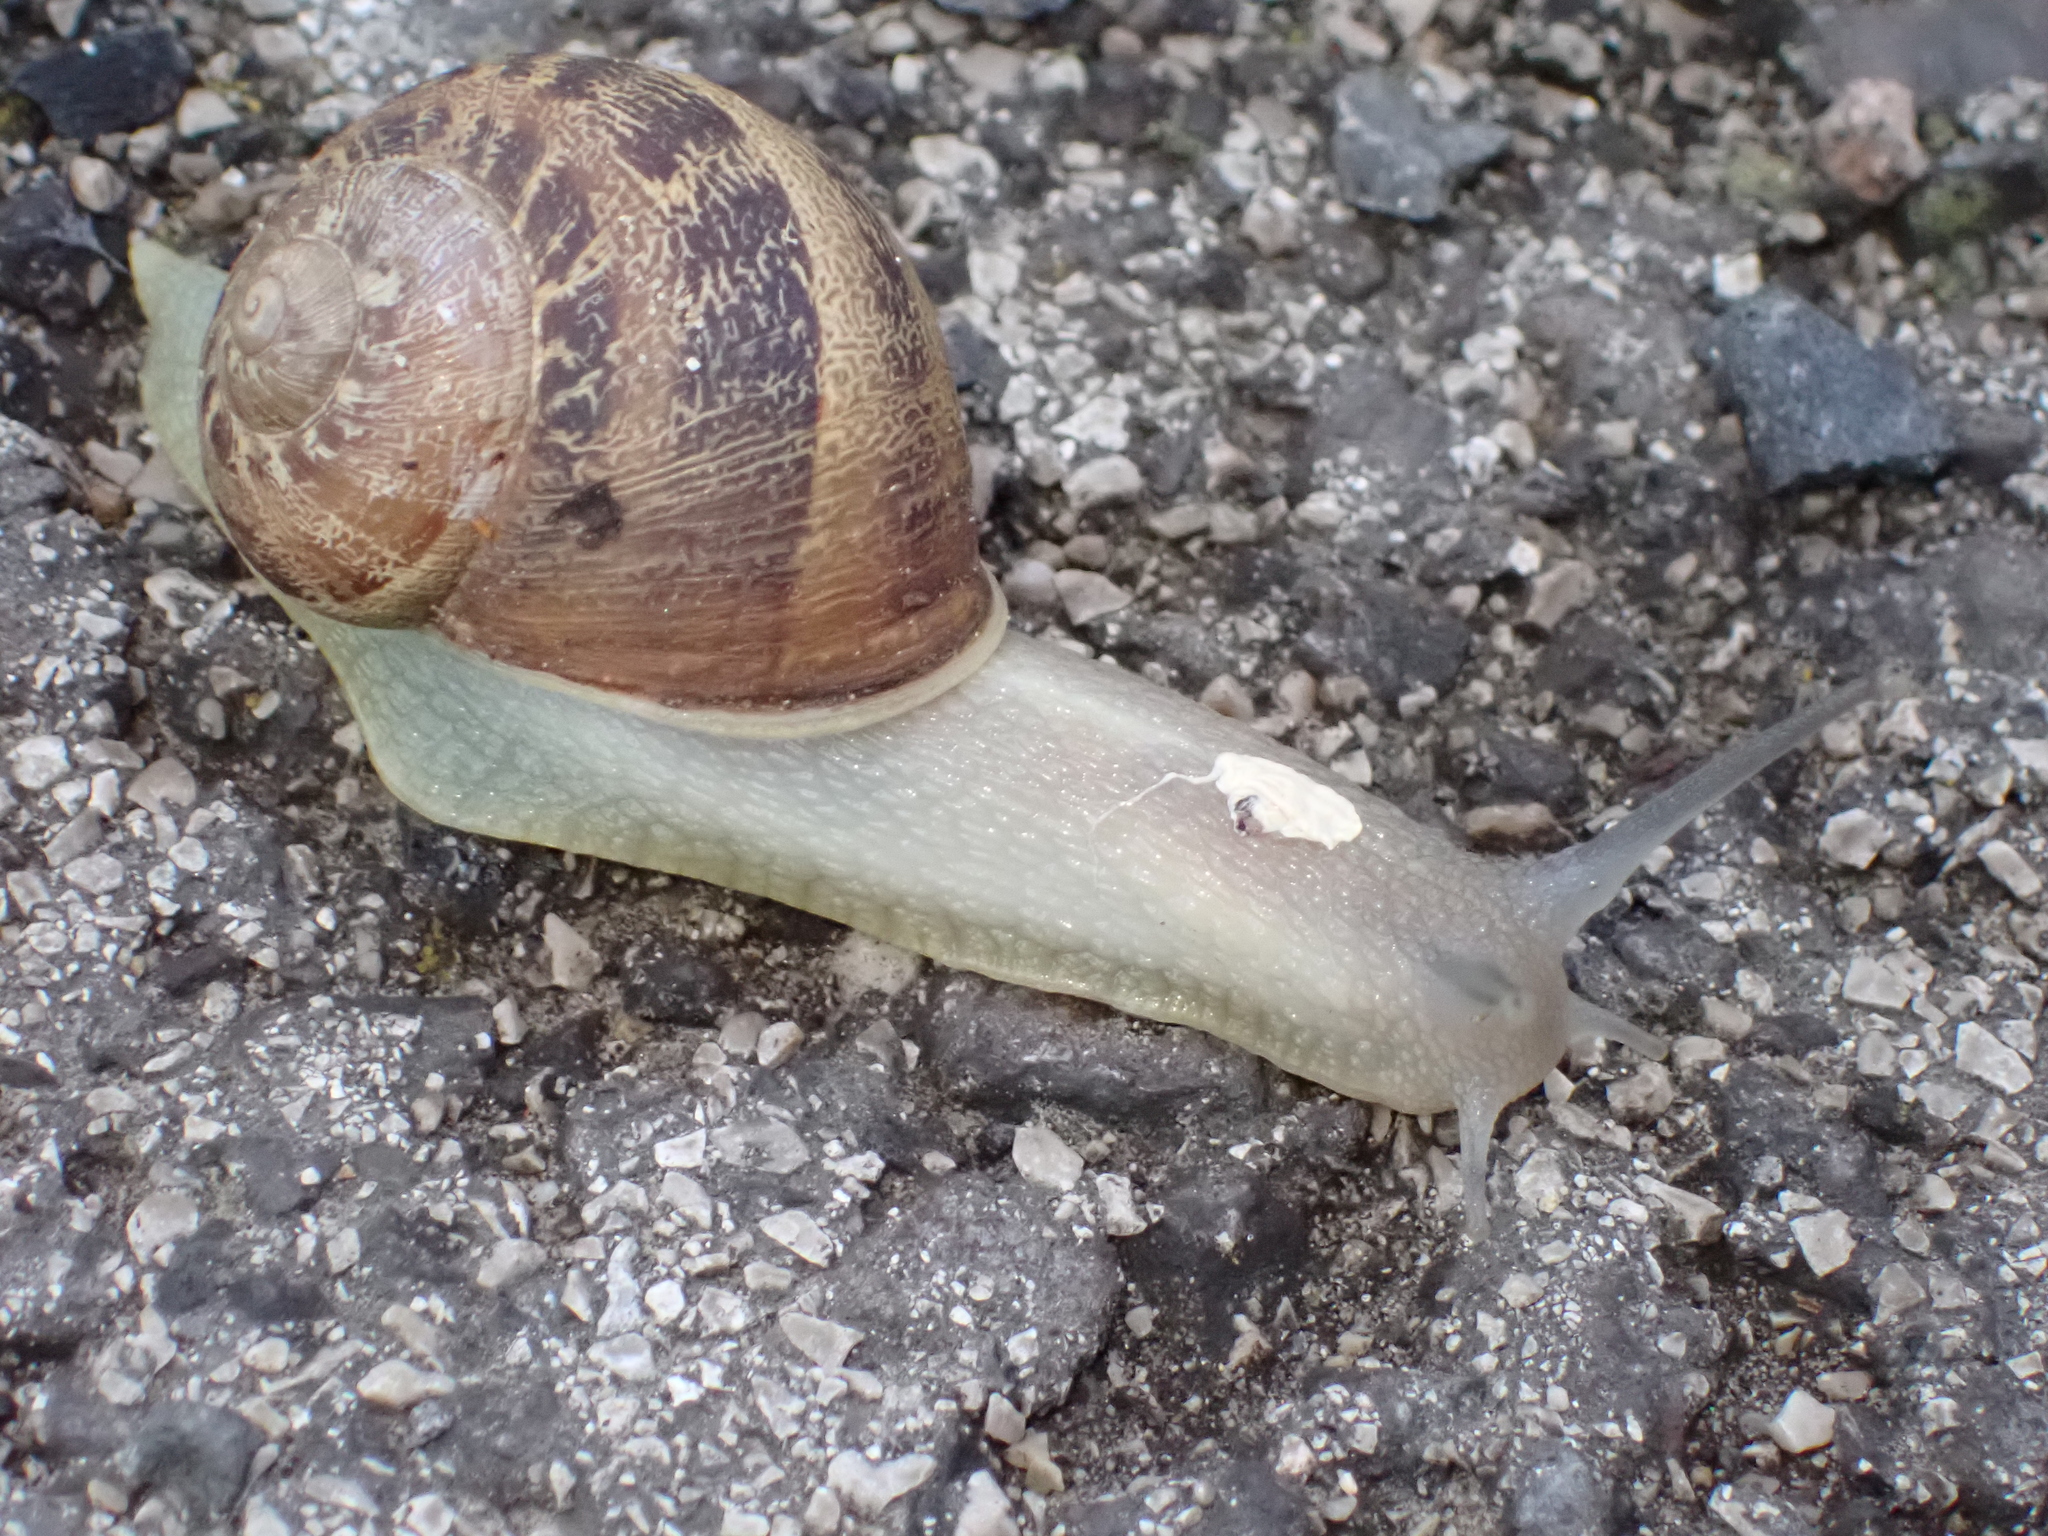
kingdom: Animalia
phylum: Mollusca
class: Gastropoda
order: Stylommatophora
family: Helicidae
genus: Cornu
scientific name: Cornu aspersum
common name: Brown garden snail
